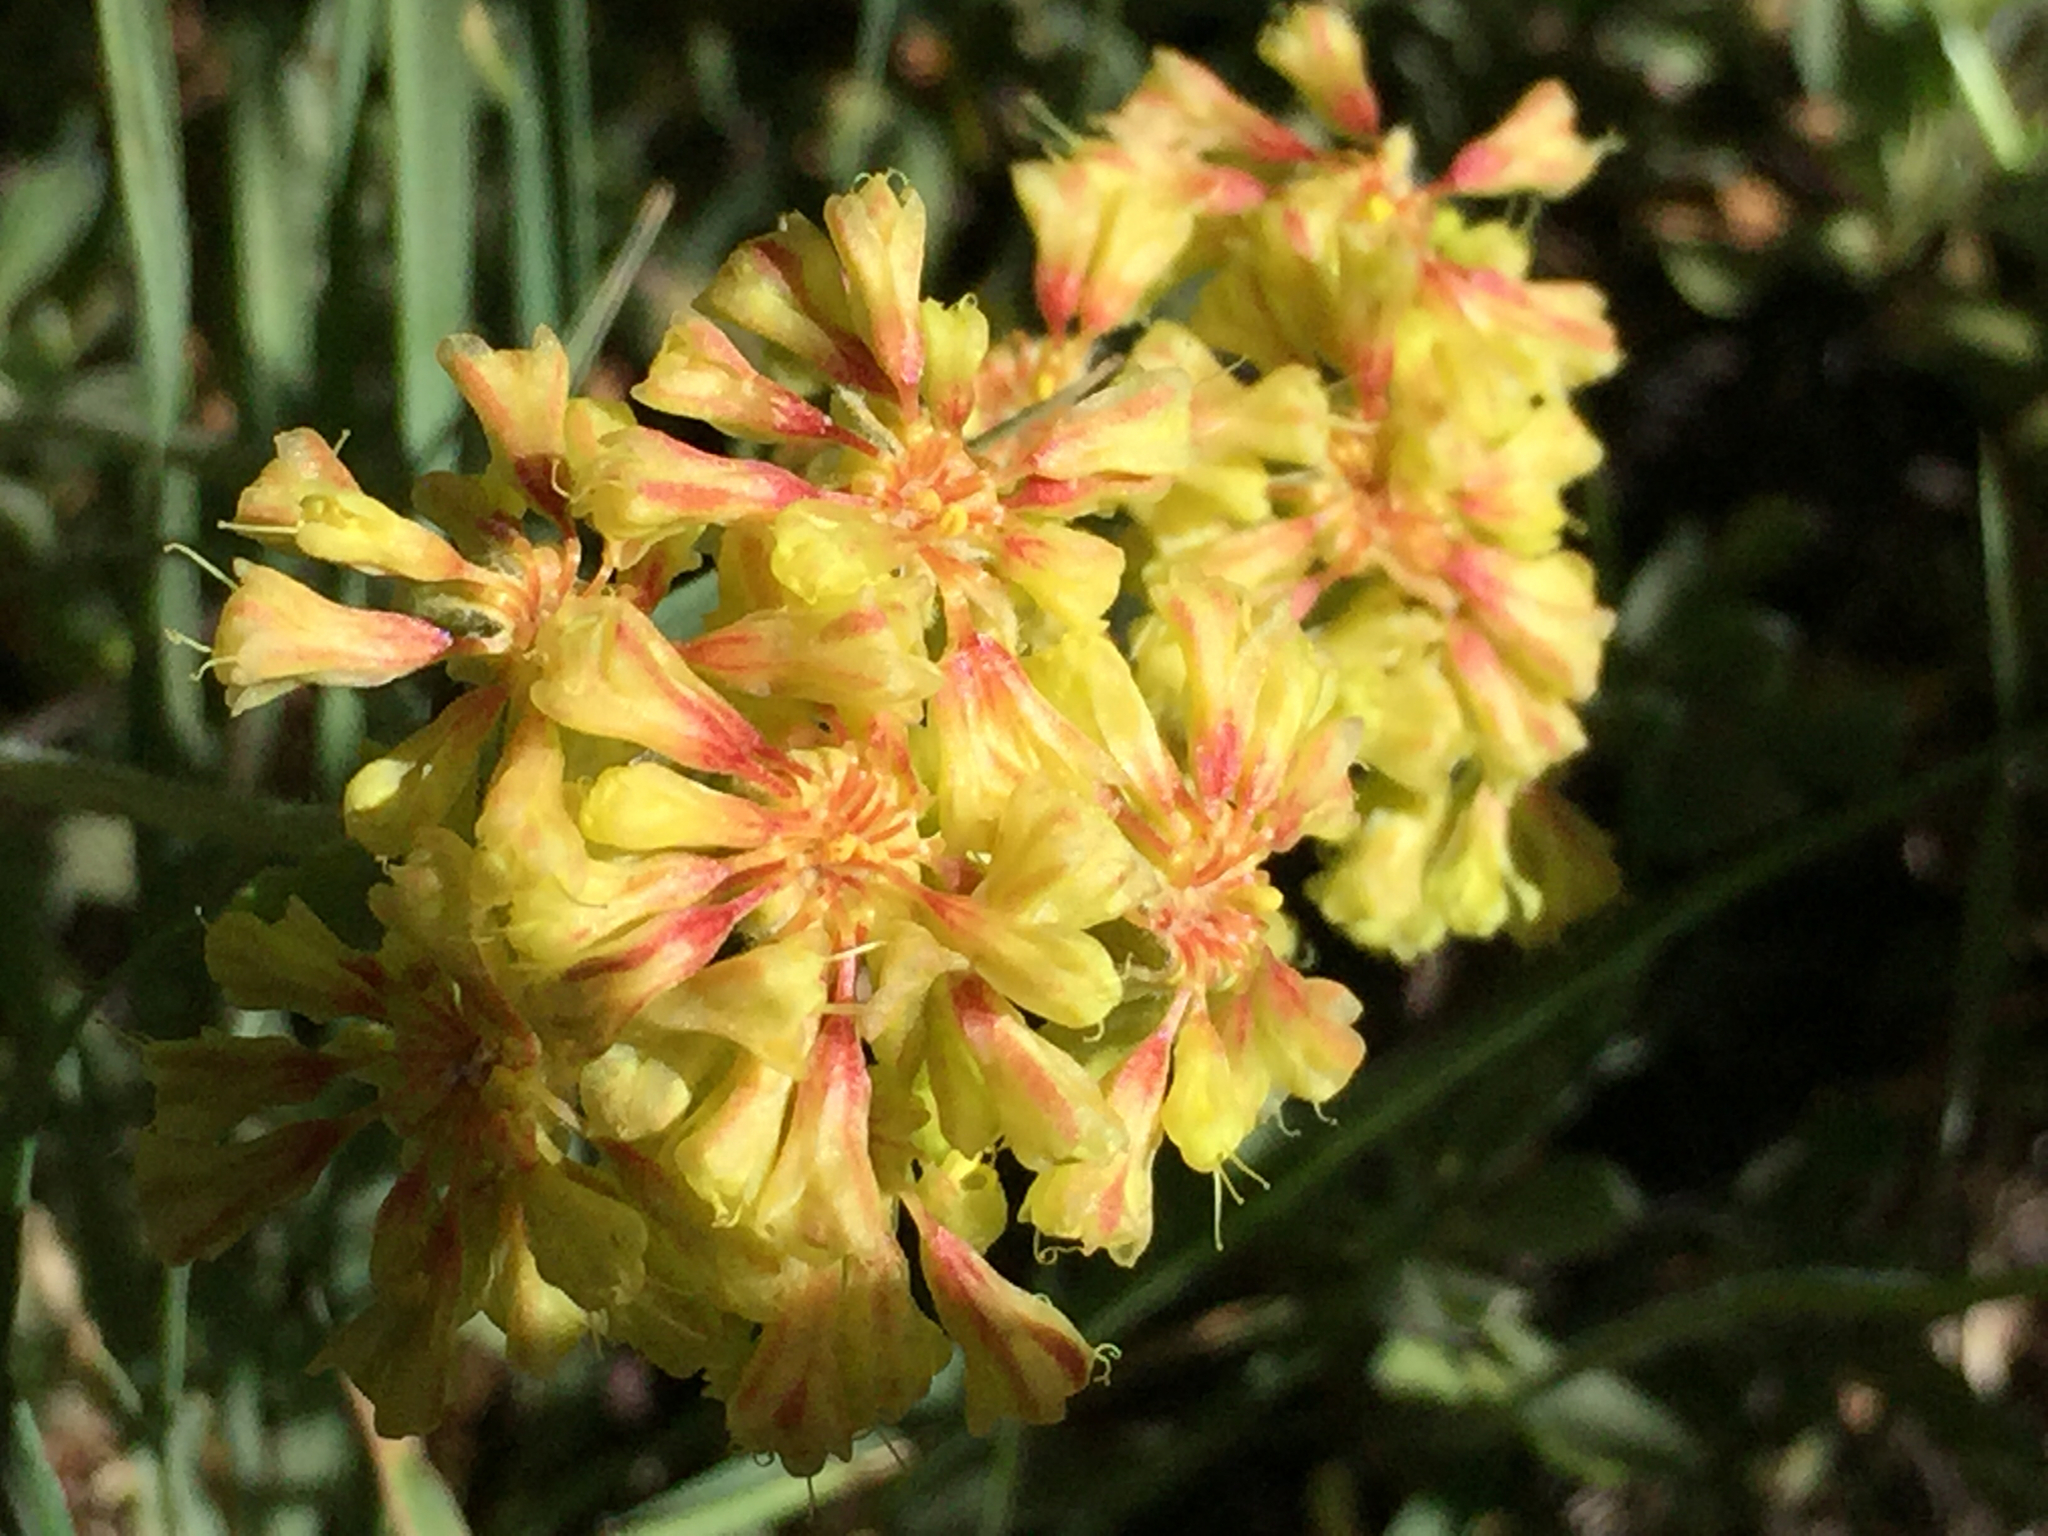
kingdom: Plantae
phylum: Tracheophyta
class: Magnoliopsida
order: Caryophyllales
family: Polygonaceae
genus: Eriogonum
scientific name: Eriogonum umbellatum
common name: Sulfur-buckwheat
